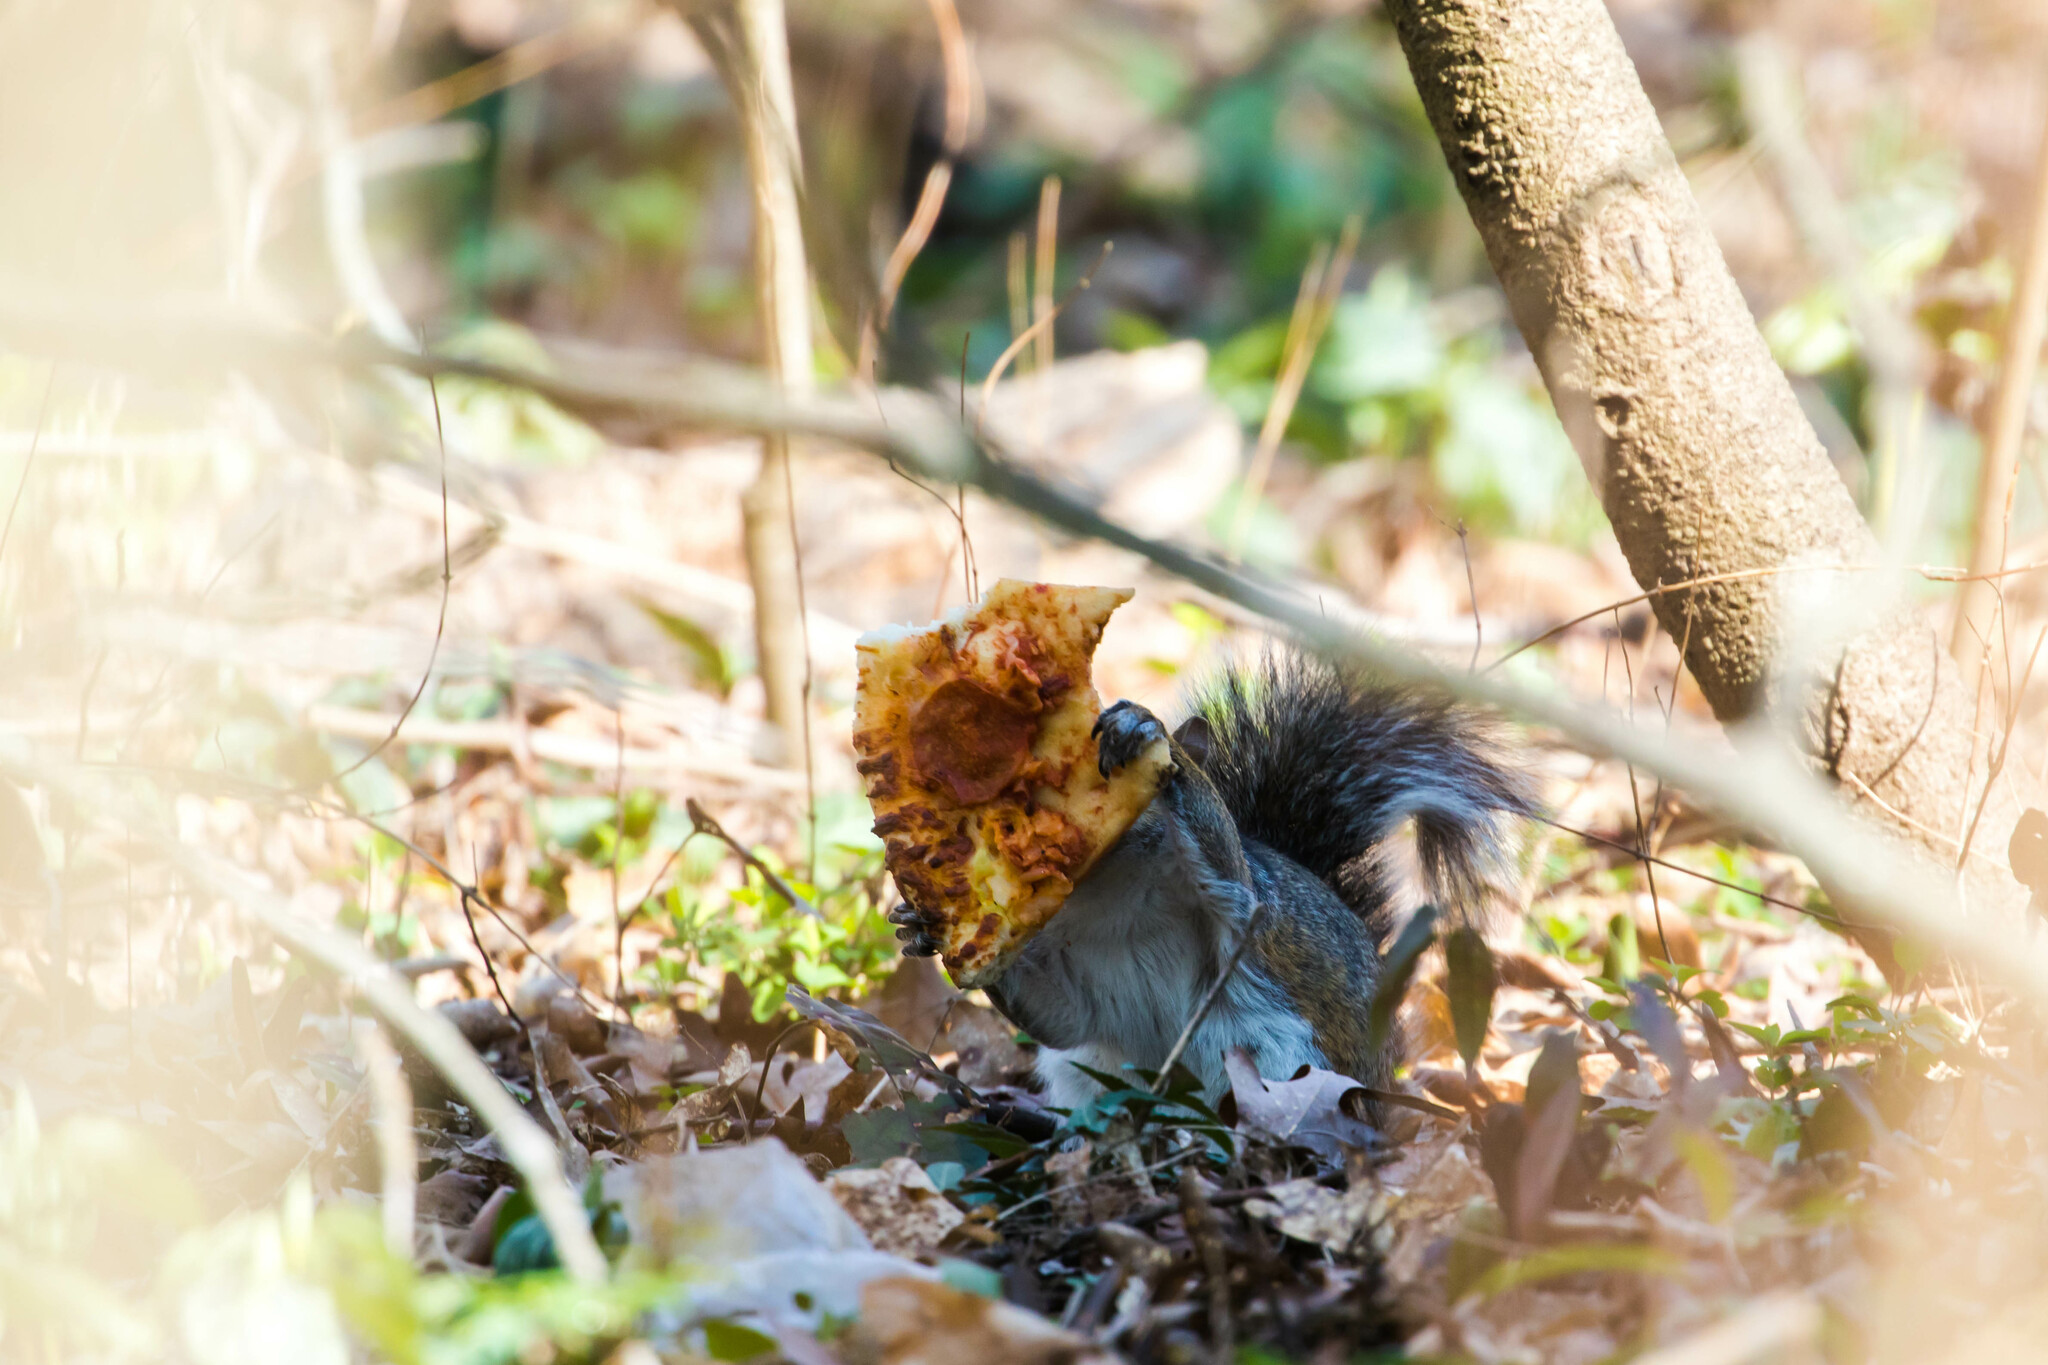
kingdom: Animalia
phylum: Chordata
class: Mammalia
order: Rodentia
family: Sciuridae
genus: Sciurus
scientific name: Sciurus carolinensis
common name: Eastern gray squirrel
